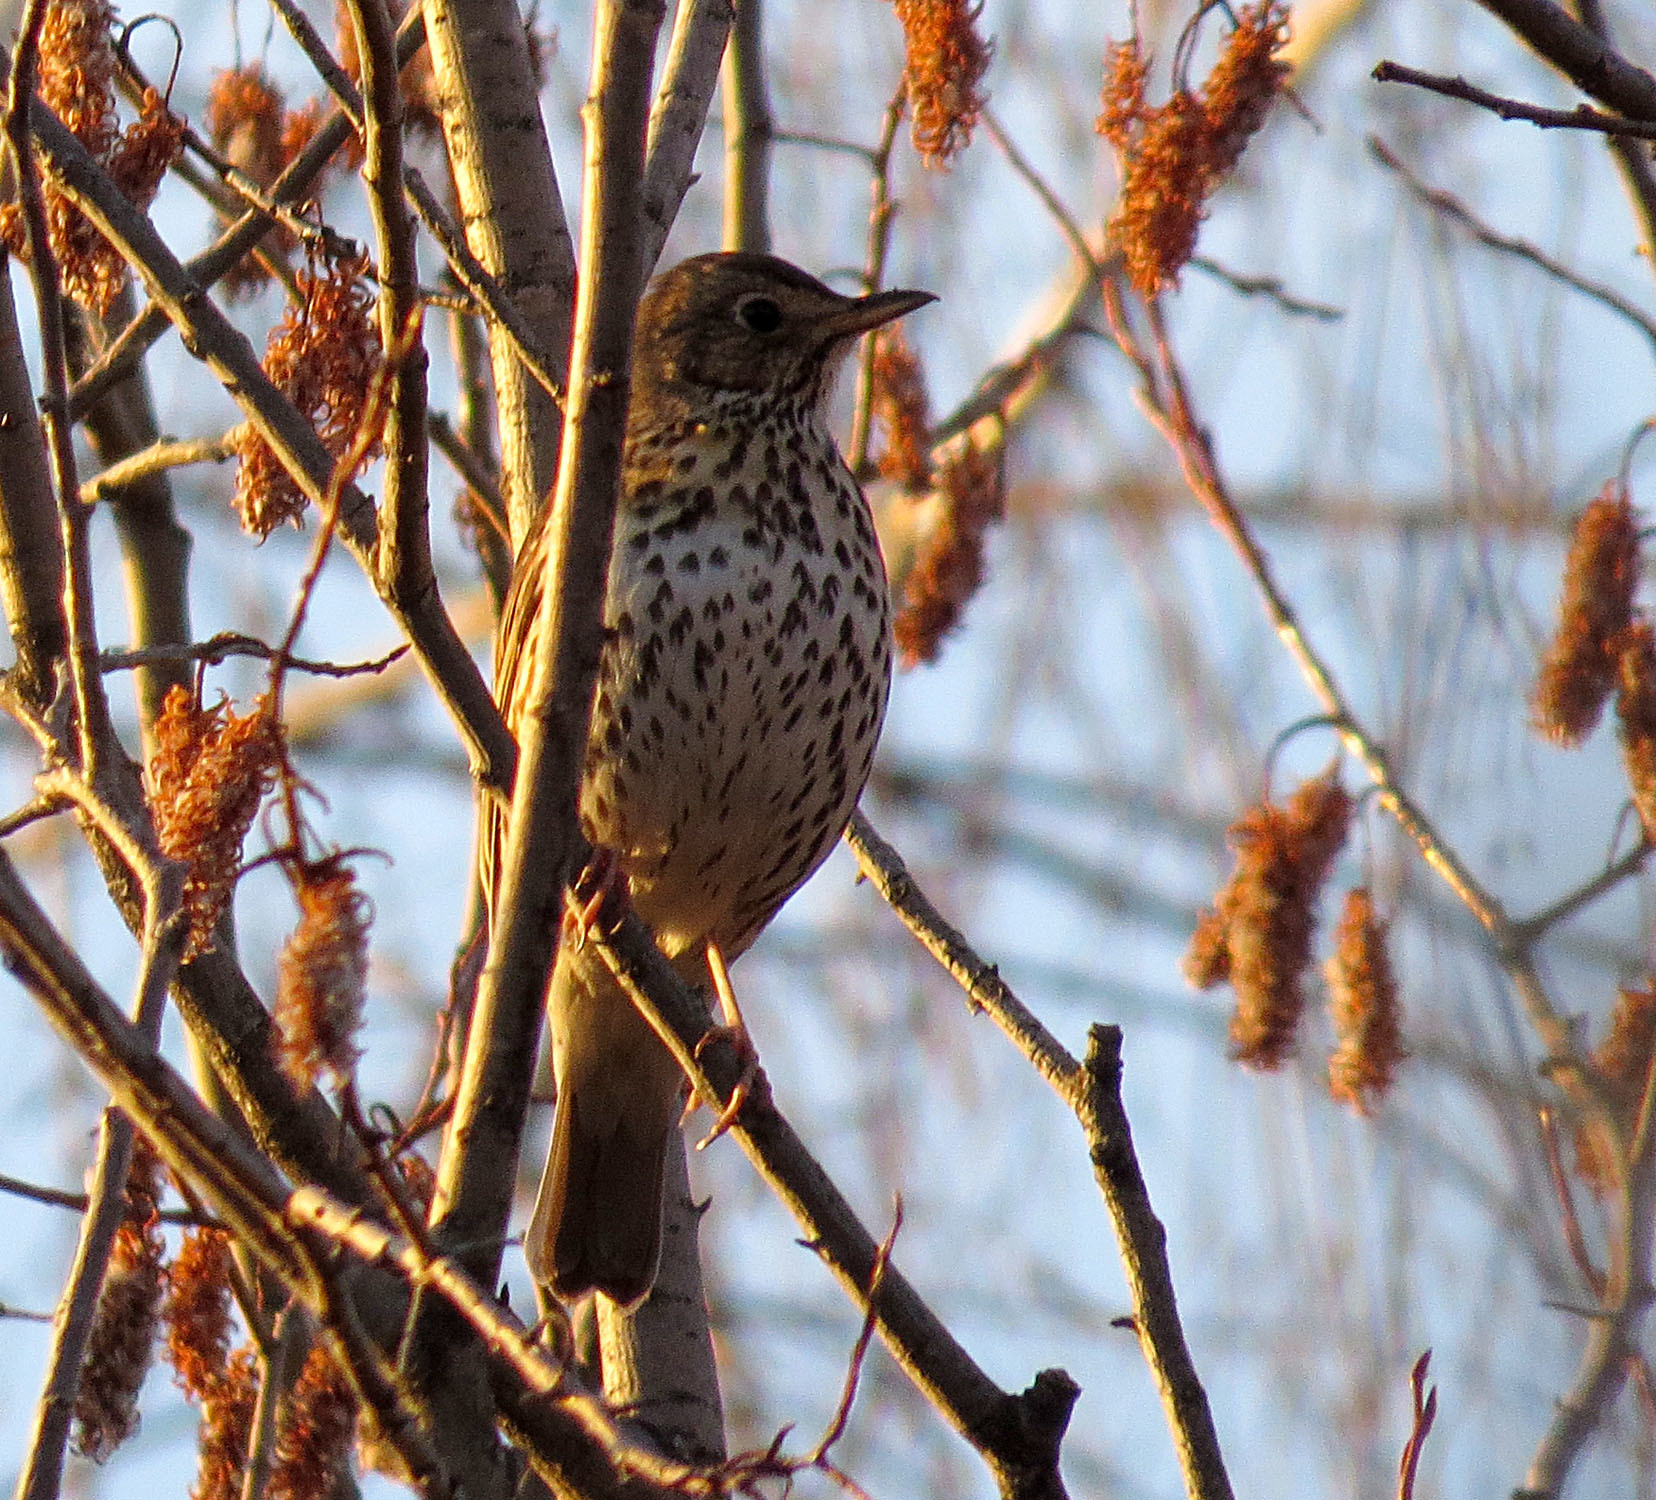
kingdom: Animalia
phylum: Chordata
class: Aves
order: Passeriformes
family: Turdidae
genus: Turdus
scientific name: Turdus philomelos
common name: Song thrush
